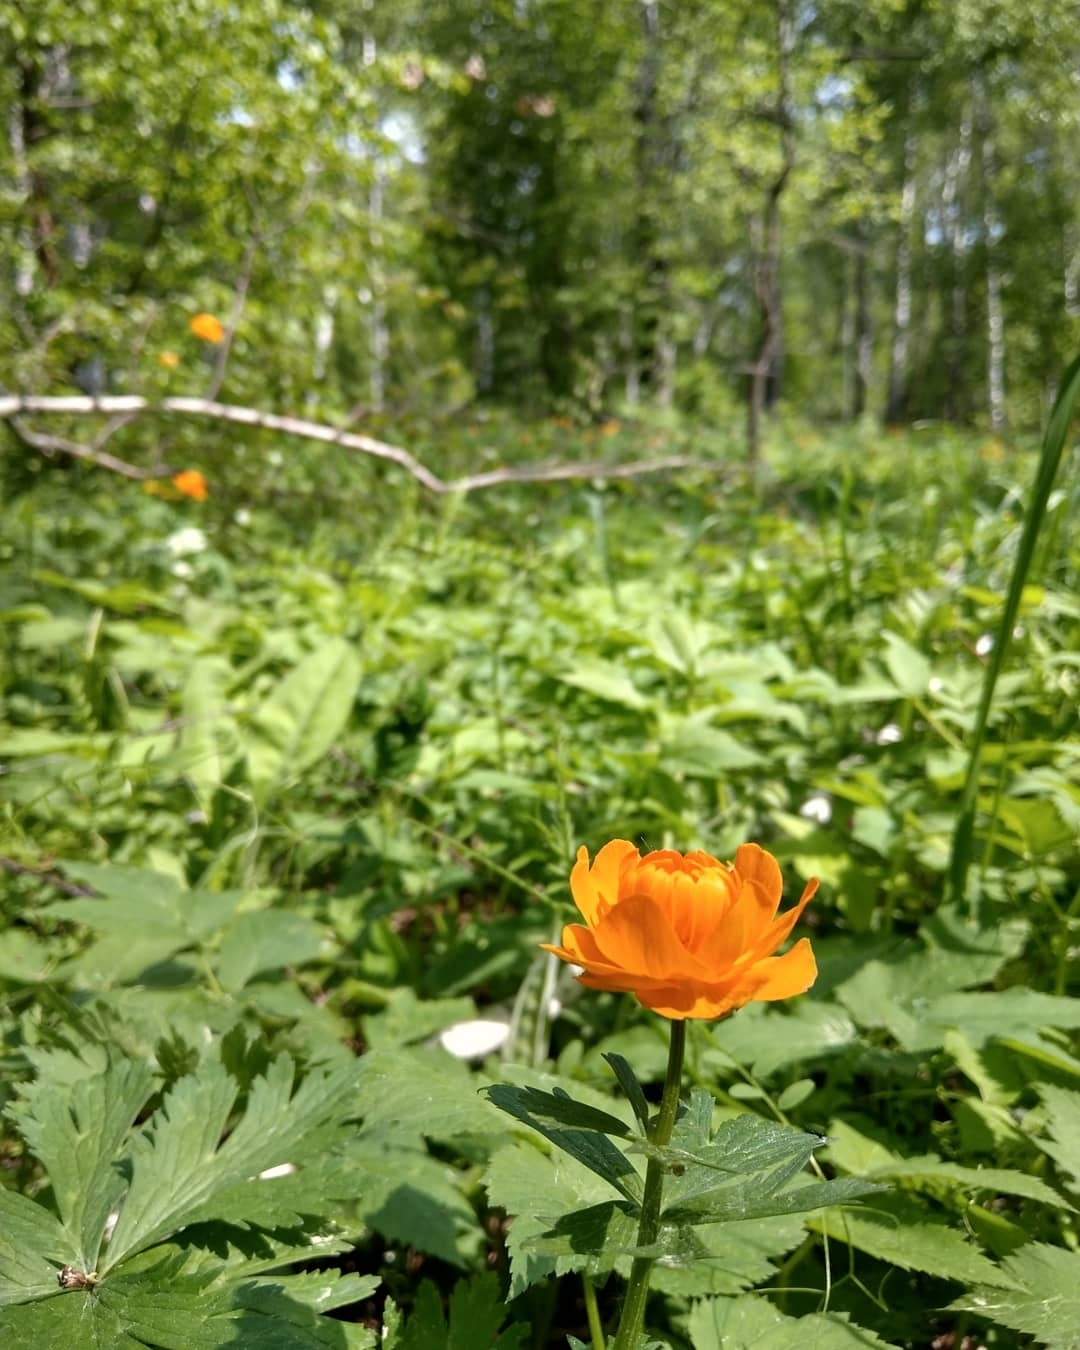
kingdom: Plantae
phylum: Tracheophyta
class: Magnoliopsida
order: Ranunculales
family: Ranunculaceae
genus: Trollius
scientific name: Trollius asiaticus
